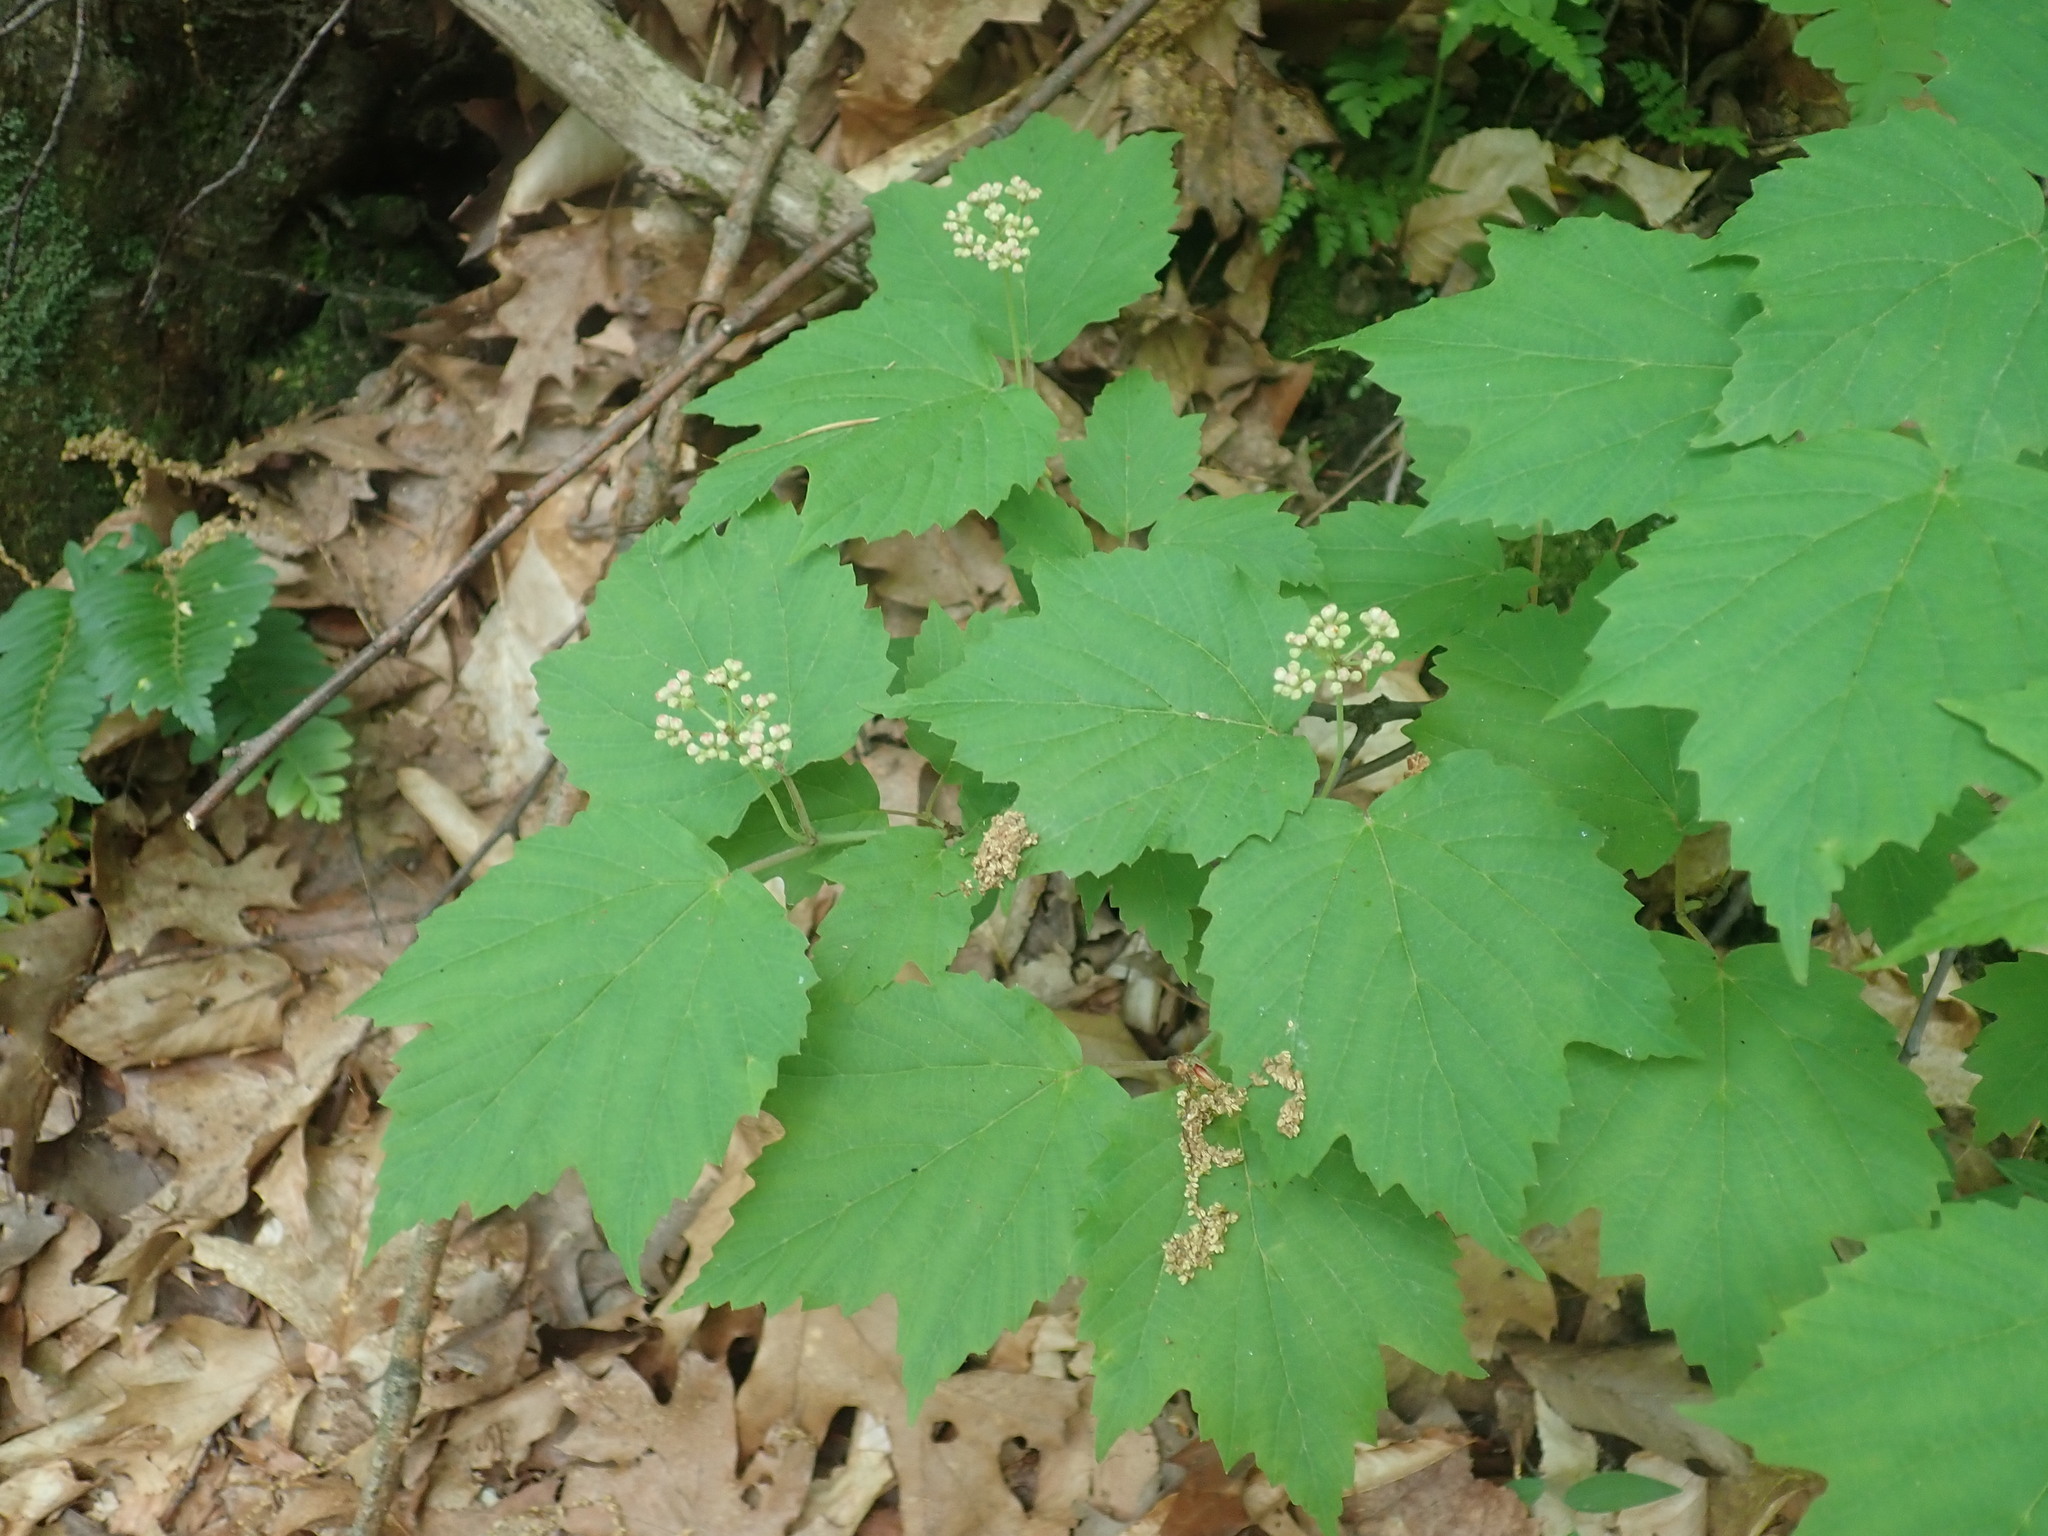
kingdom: Plantae
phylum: Tracheophyta
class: Magnoliopsida
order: Dipsacales
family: Viburnaceae
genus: Viburnum
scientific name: Viburnum acerifolium
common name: Dockmackie
